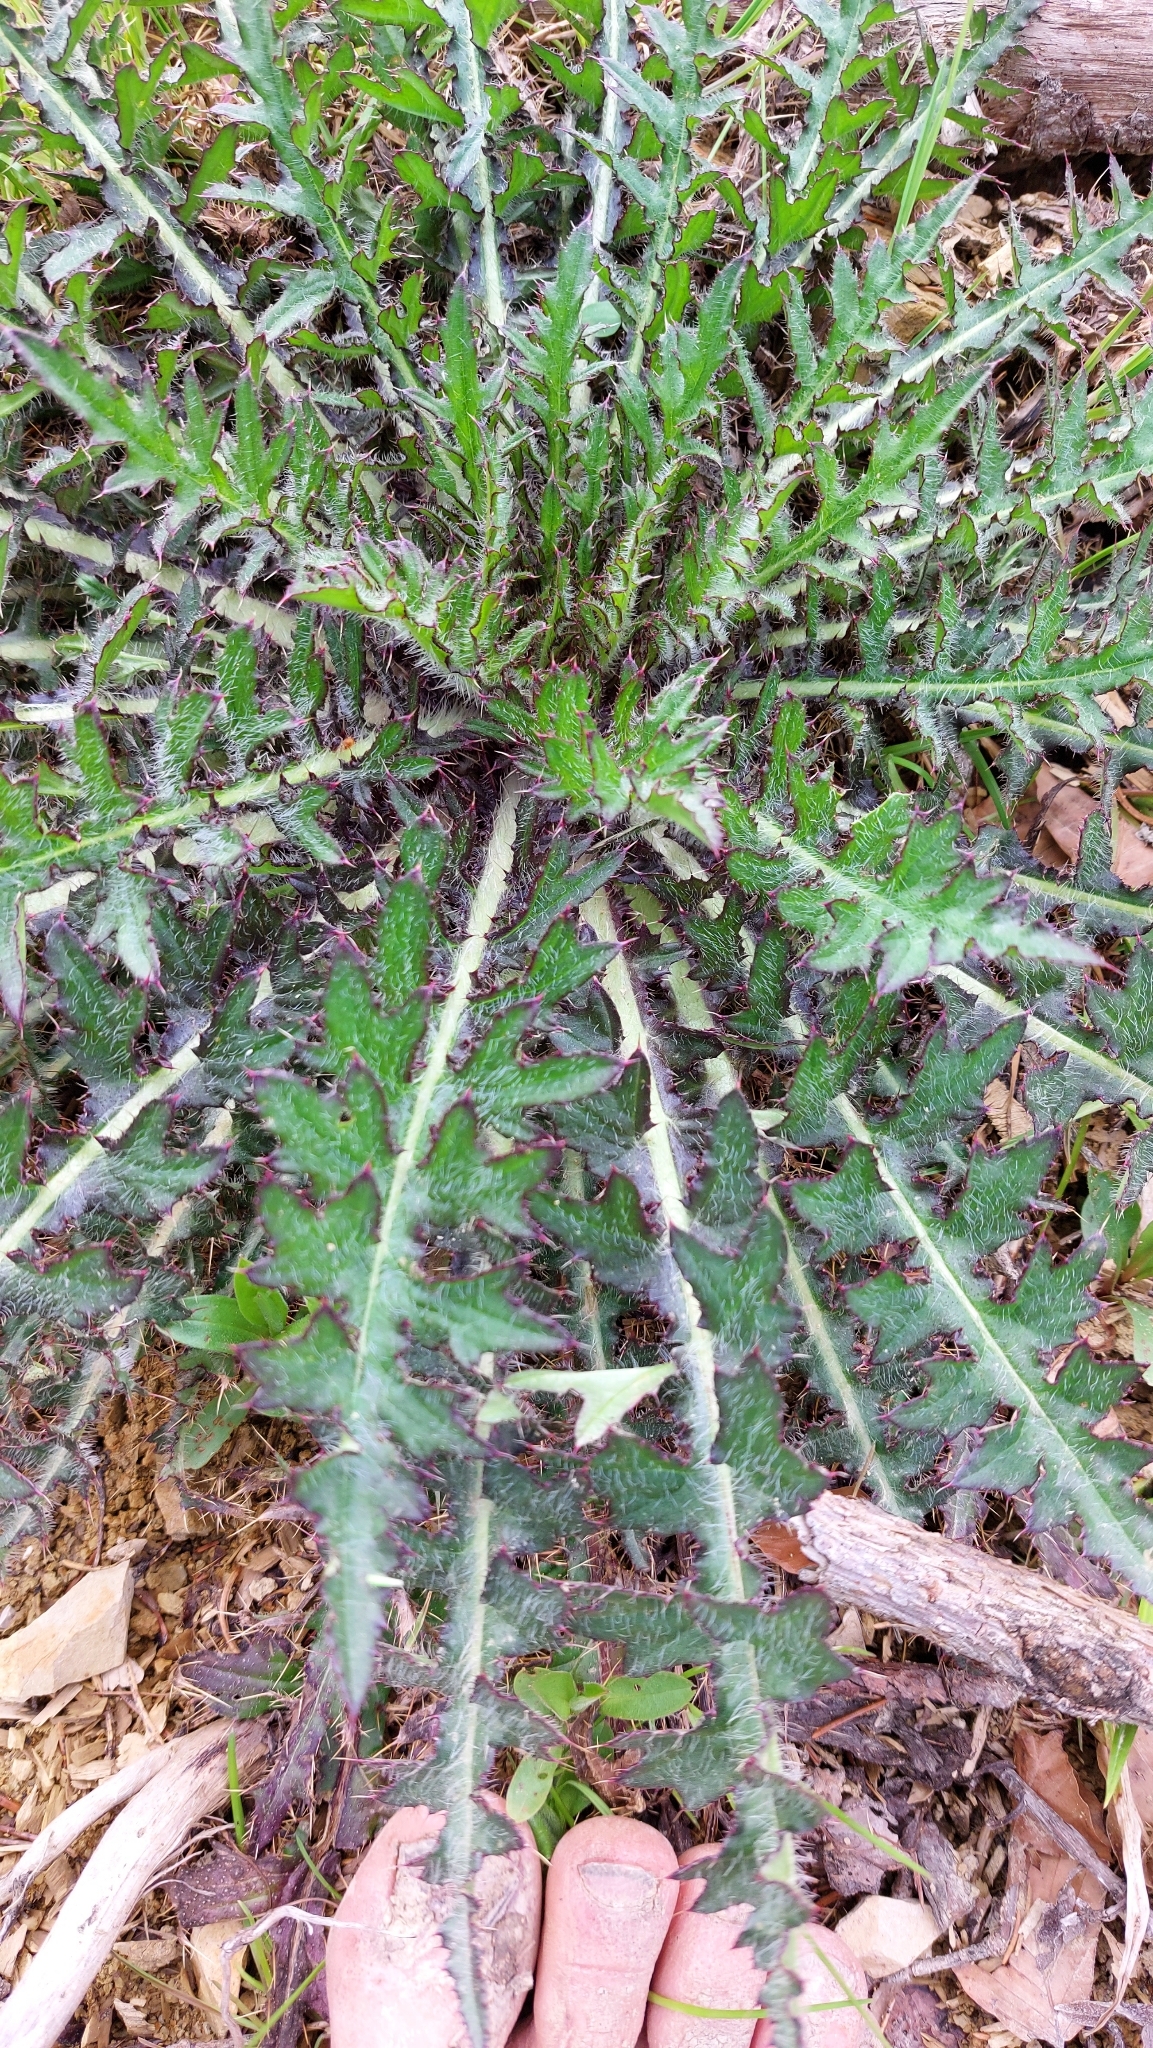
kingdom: Plantae
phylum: Tracheophyta
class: Magnoliopsida
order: Asterales
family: Asteraceae
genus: Cirsium
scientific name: Cirsium palustre
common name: Marsh thistle
